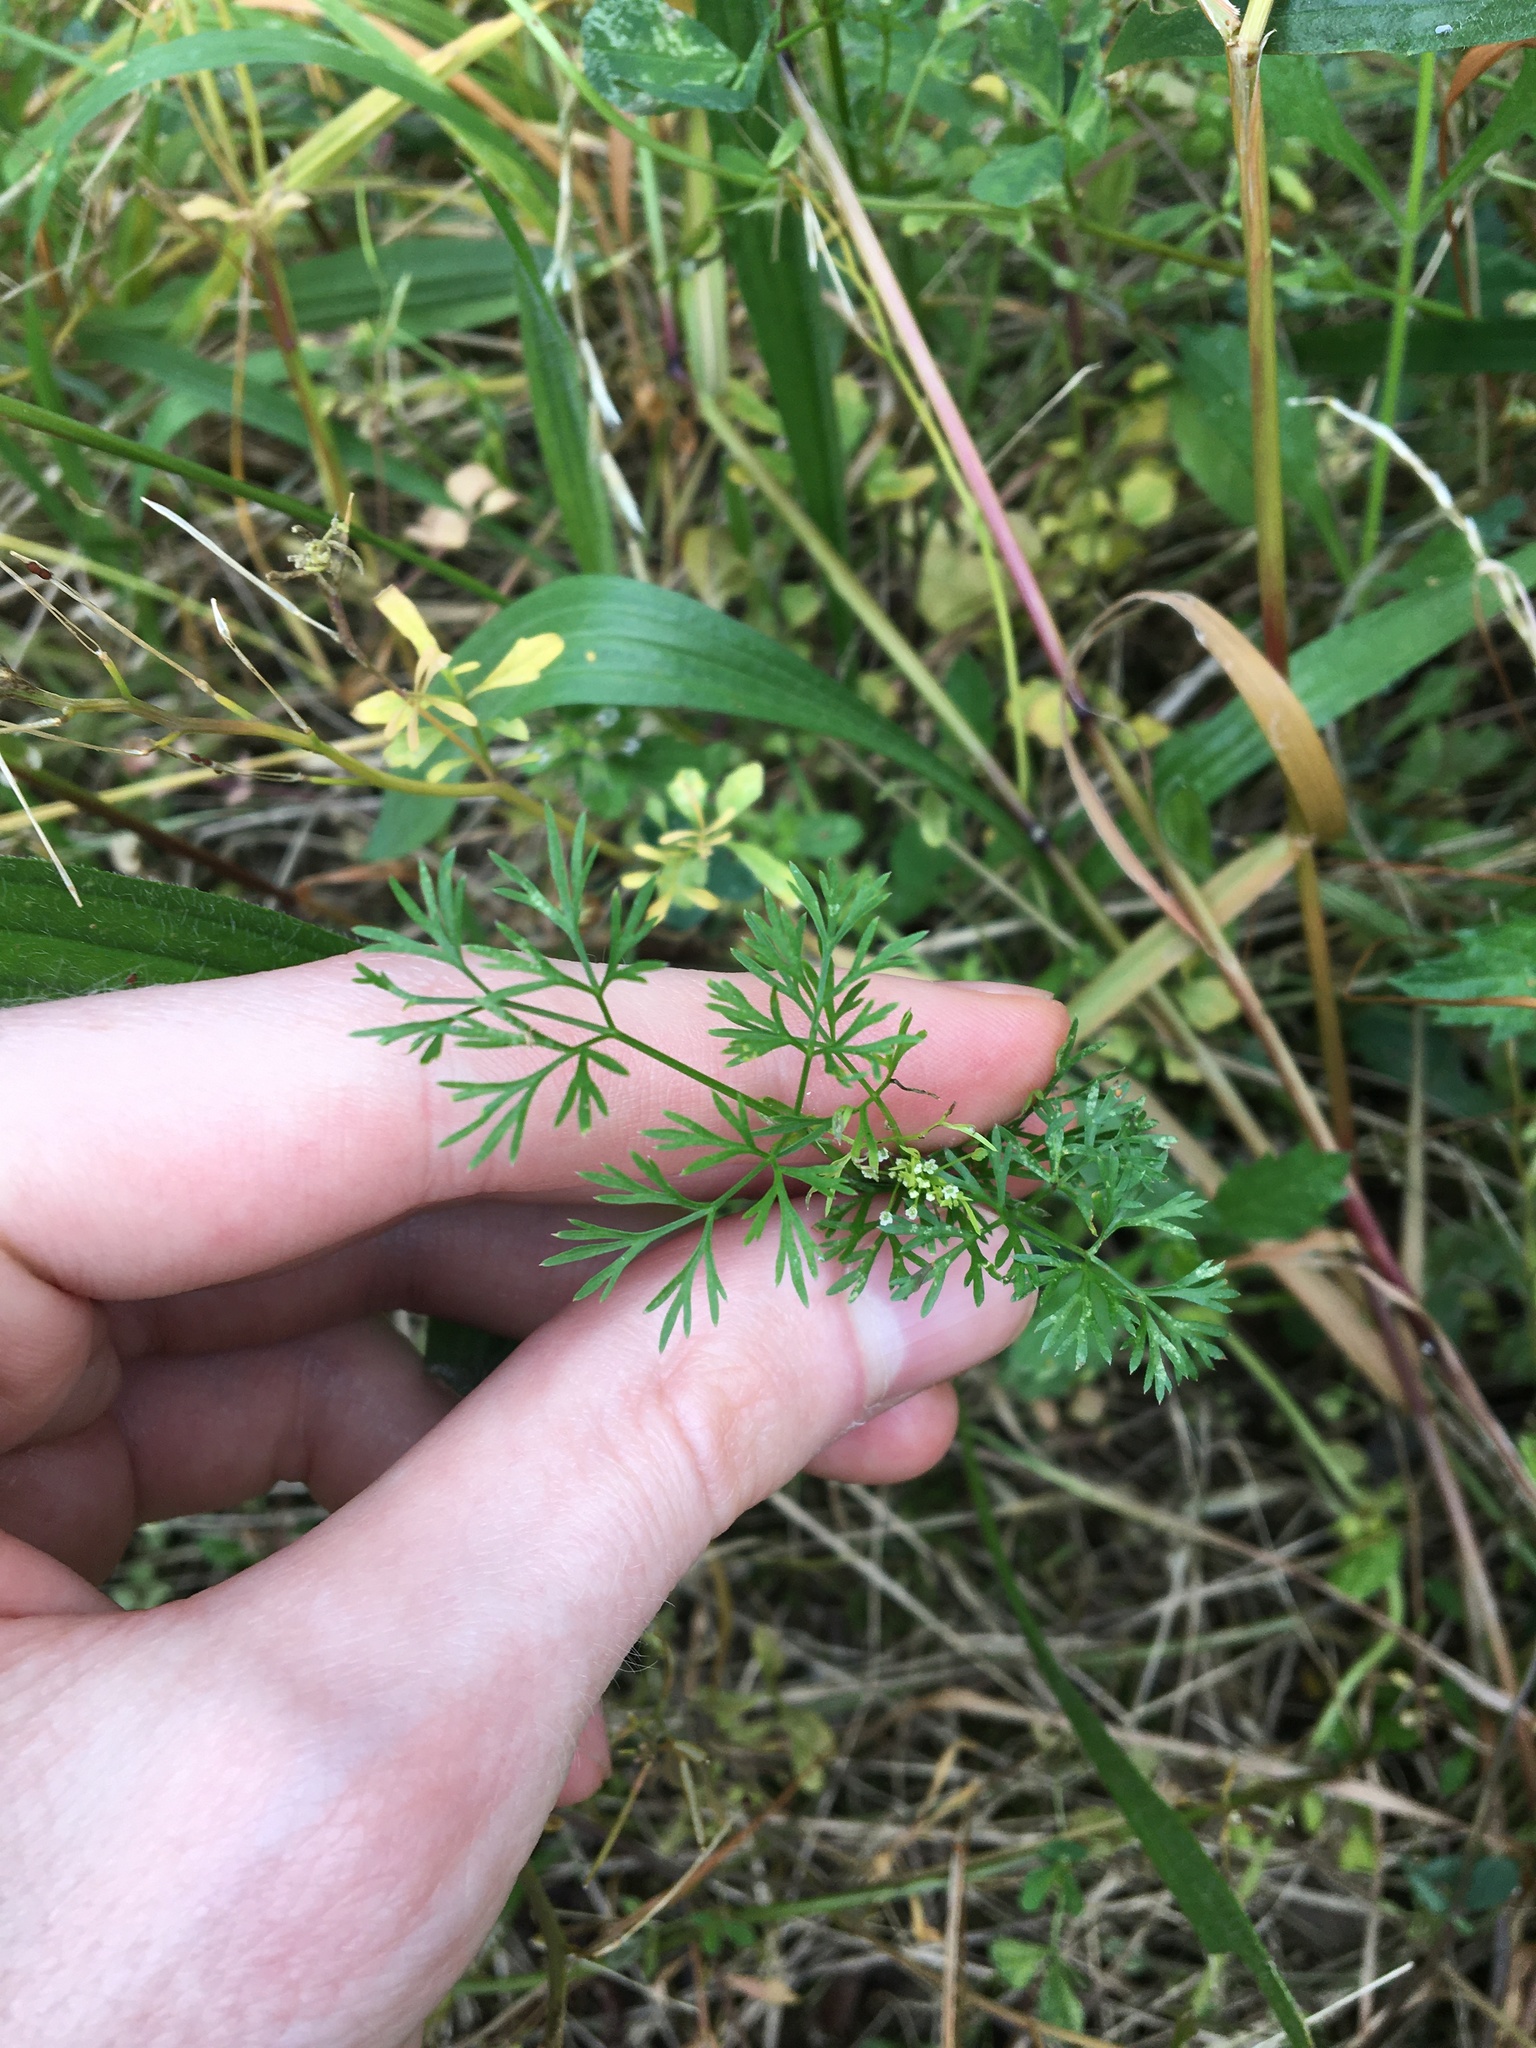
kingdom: Plantae
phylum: Tracheophyta
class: Magnoliopsida
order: Apiales
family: Apiaceae
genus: Cyclospermum
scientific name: Cyclospermum leptophyllum
